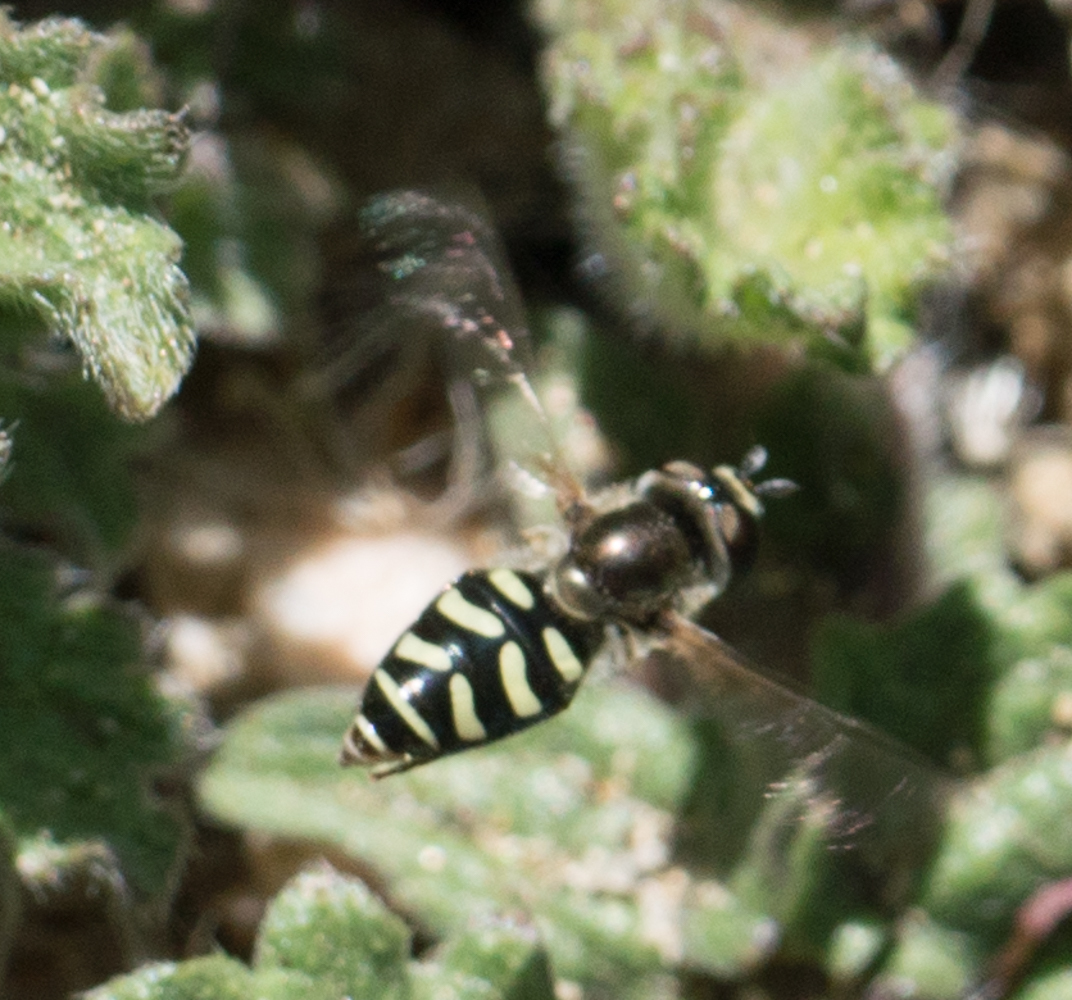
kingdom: Animalia
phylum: Arthropoda
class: Insecta
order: Diptera
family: Syrphidae
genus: Eupeodes
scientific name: Eupeodes volucris
